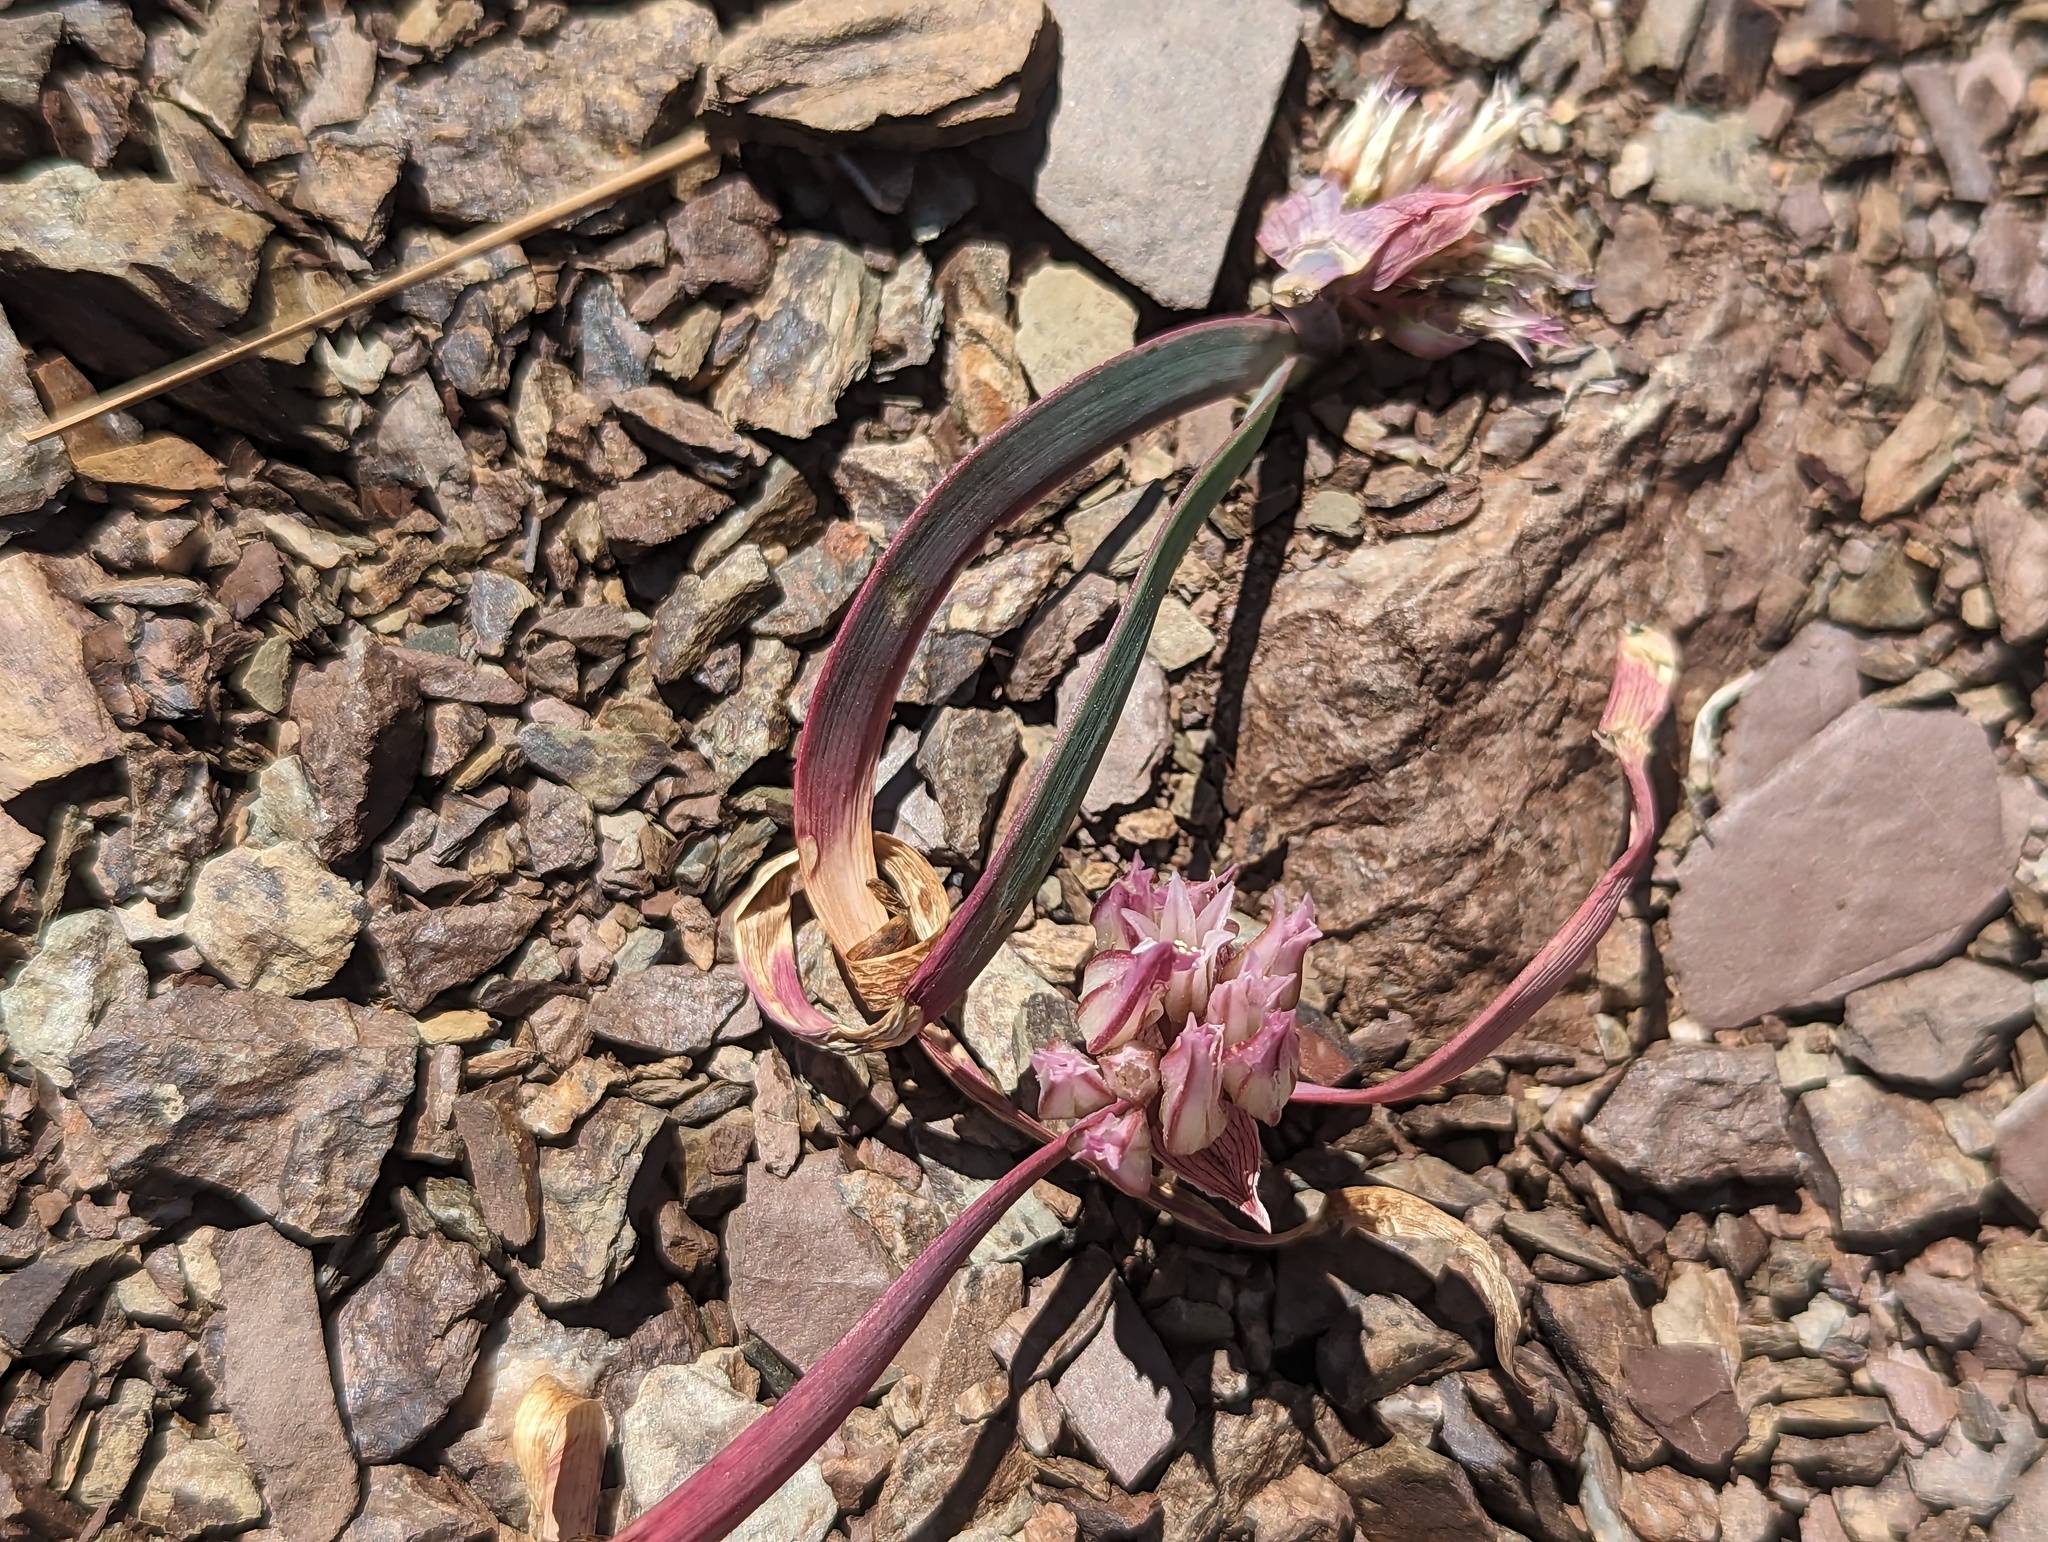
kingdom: Plantae
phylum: Tracheophyta
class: Liliopsida
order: Asparagales
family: Amaryllidaceae
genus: Allium
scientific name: Allium falcifolium
